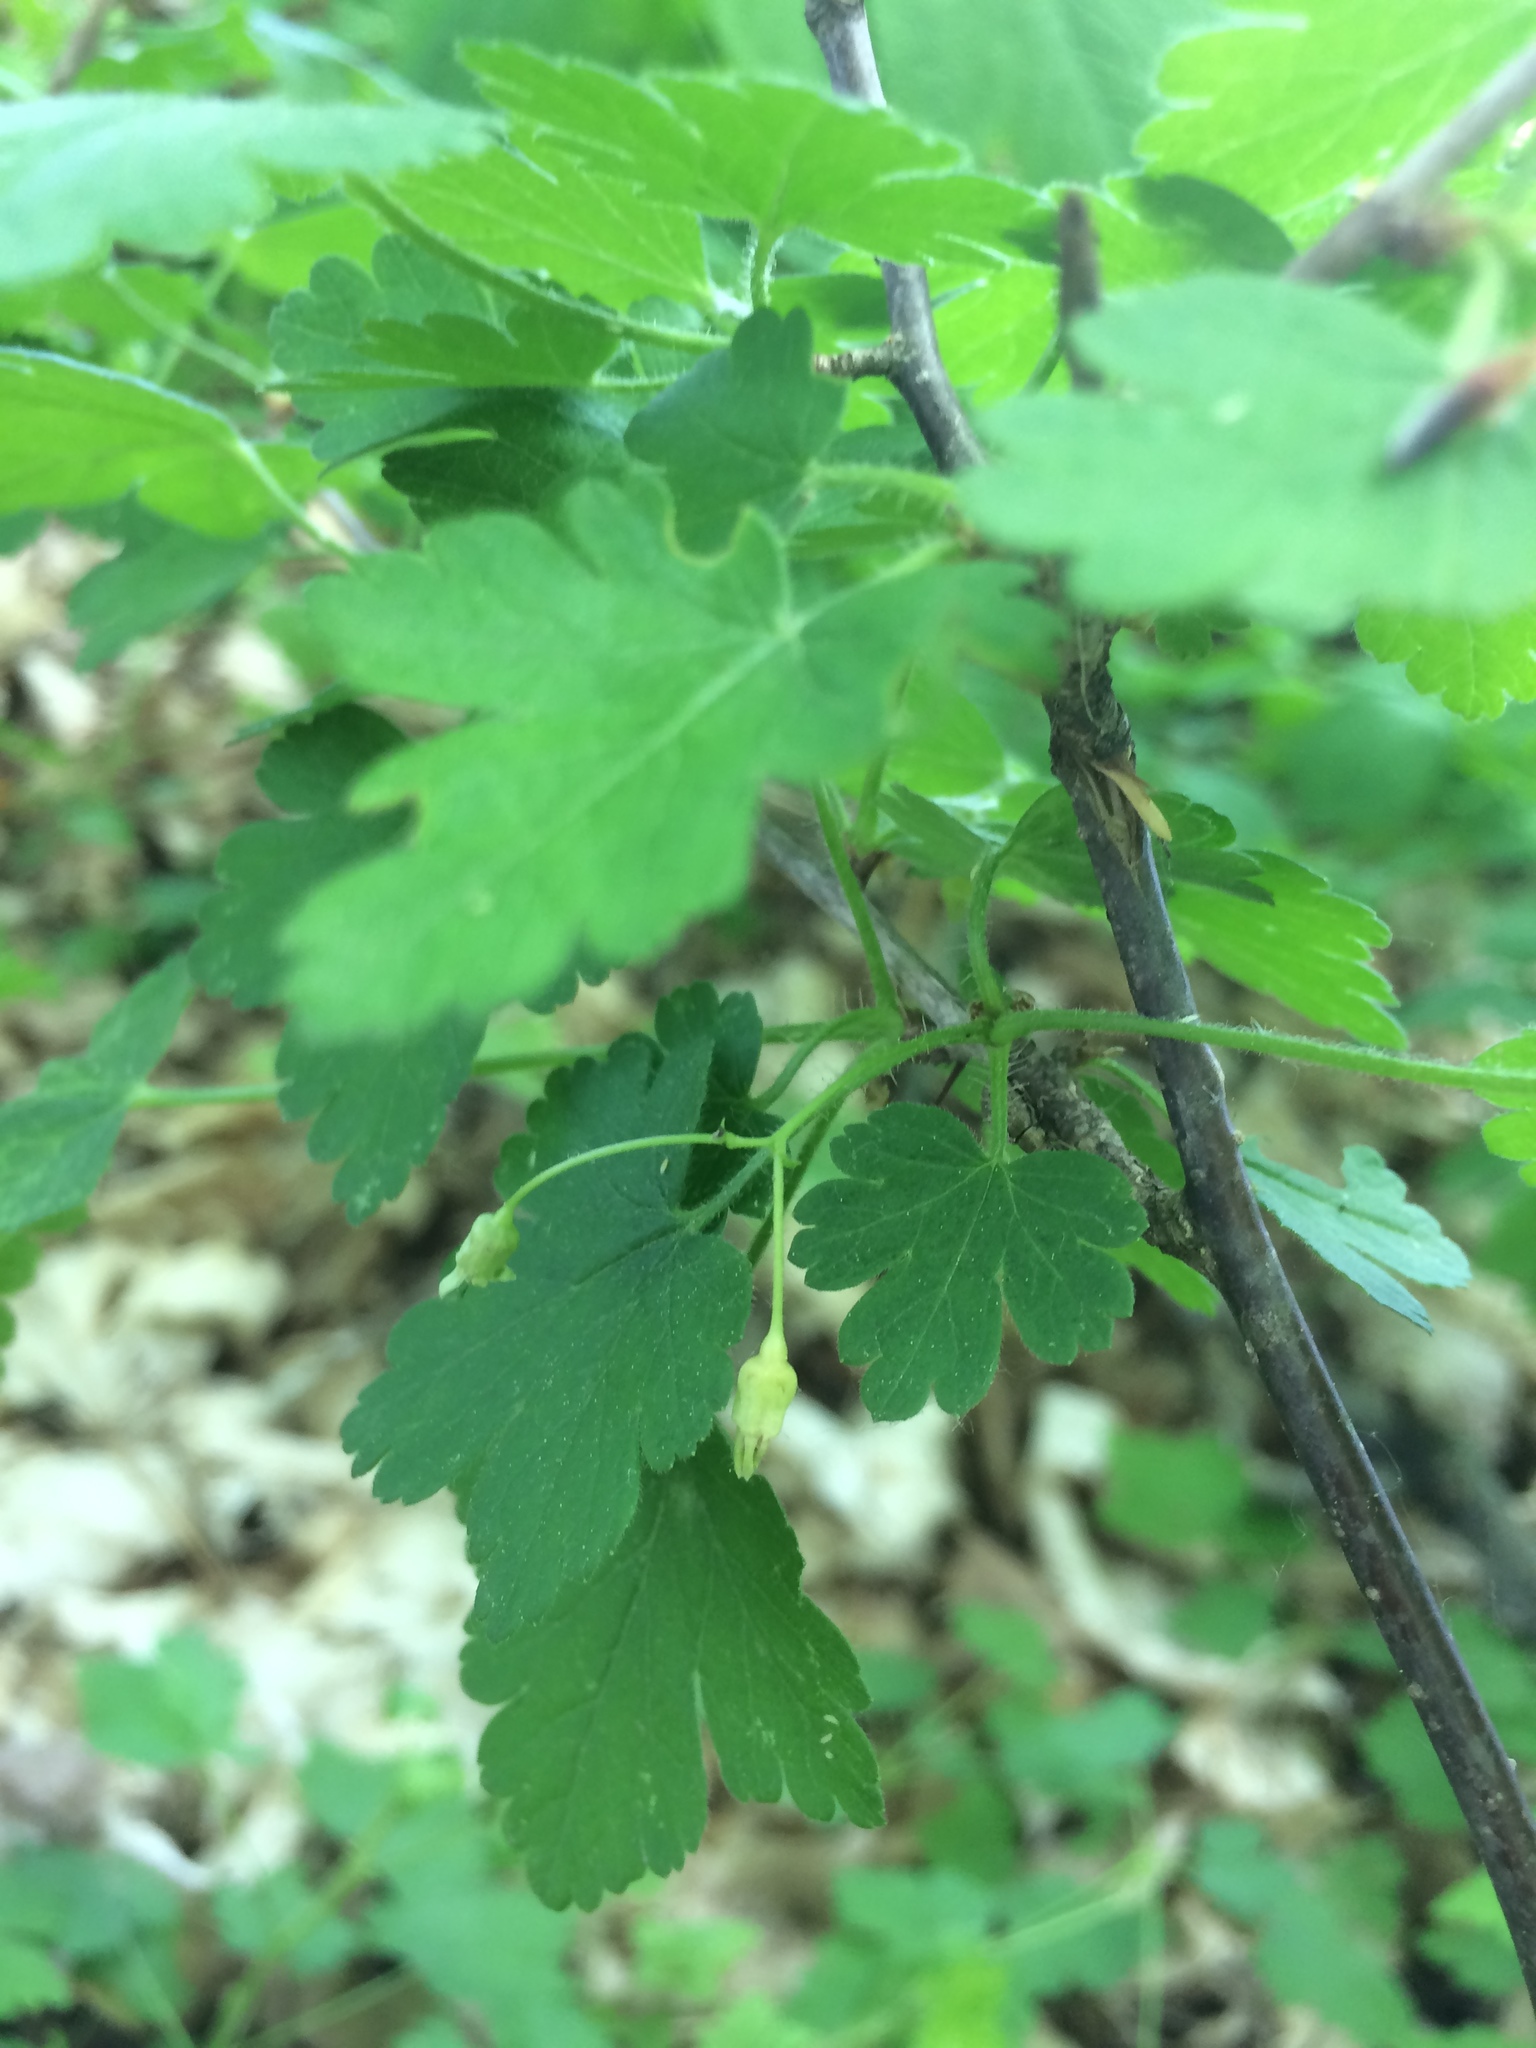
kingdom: Plantae
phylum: Tracheophyta
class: Magnoliopsida
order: Saxifragales
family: Grossulariaceae
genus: Ribes
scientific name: Ribes cynosbati
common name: American gooseberry
